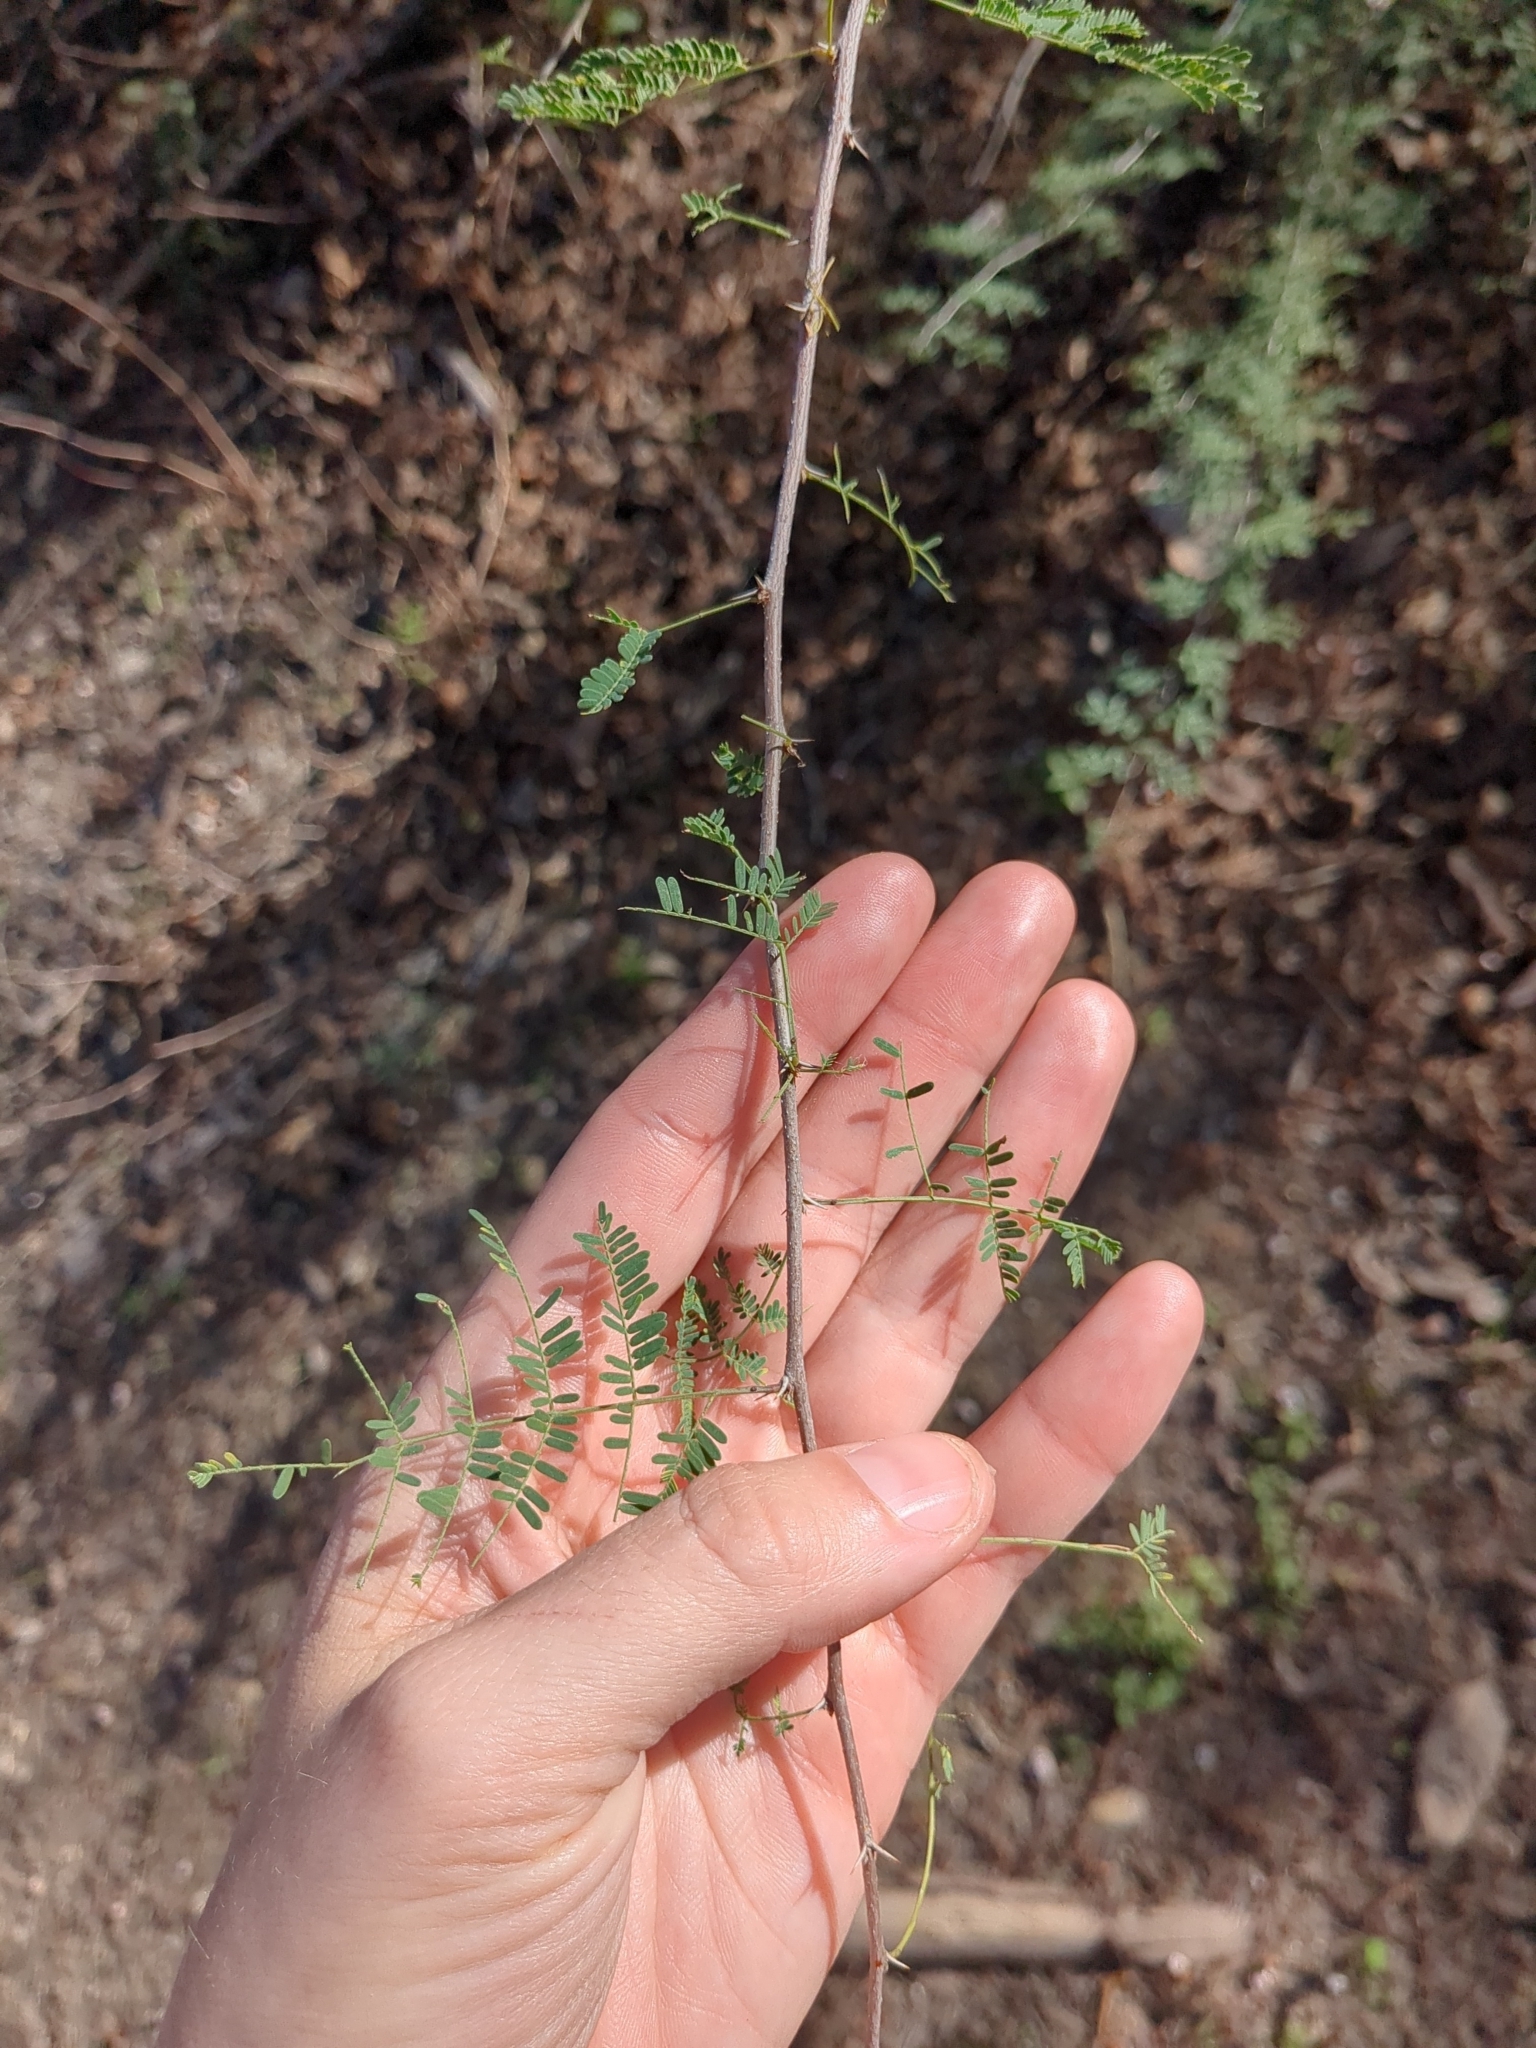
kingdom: Plantae
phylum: Tracheophyta
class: Magnoliopsida
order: Fabales
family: Fabaceae
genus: Vachellia
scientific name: Vachellia farnesiana
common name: Sweet acacia
